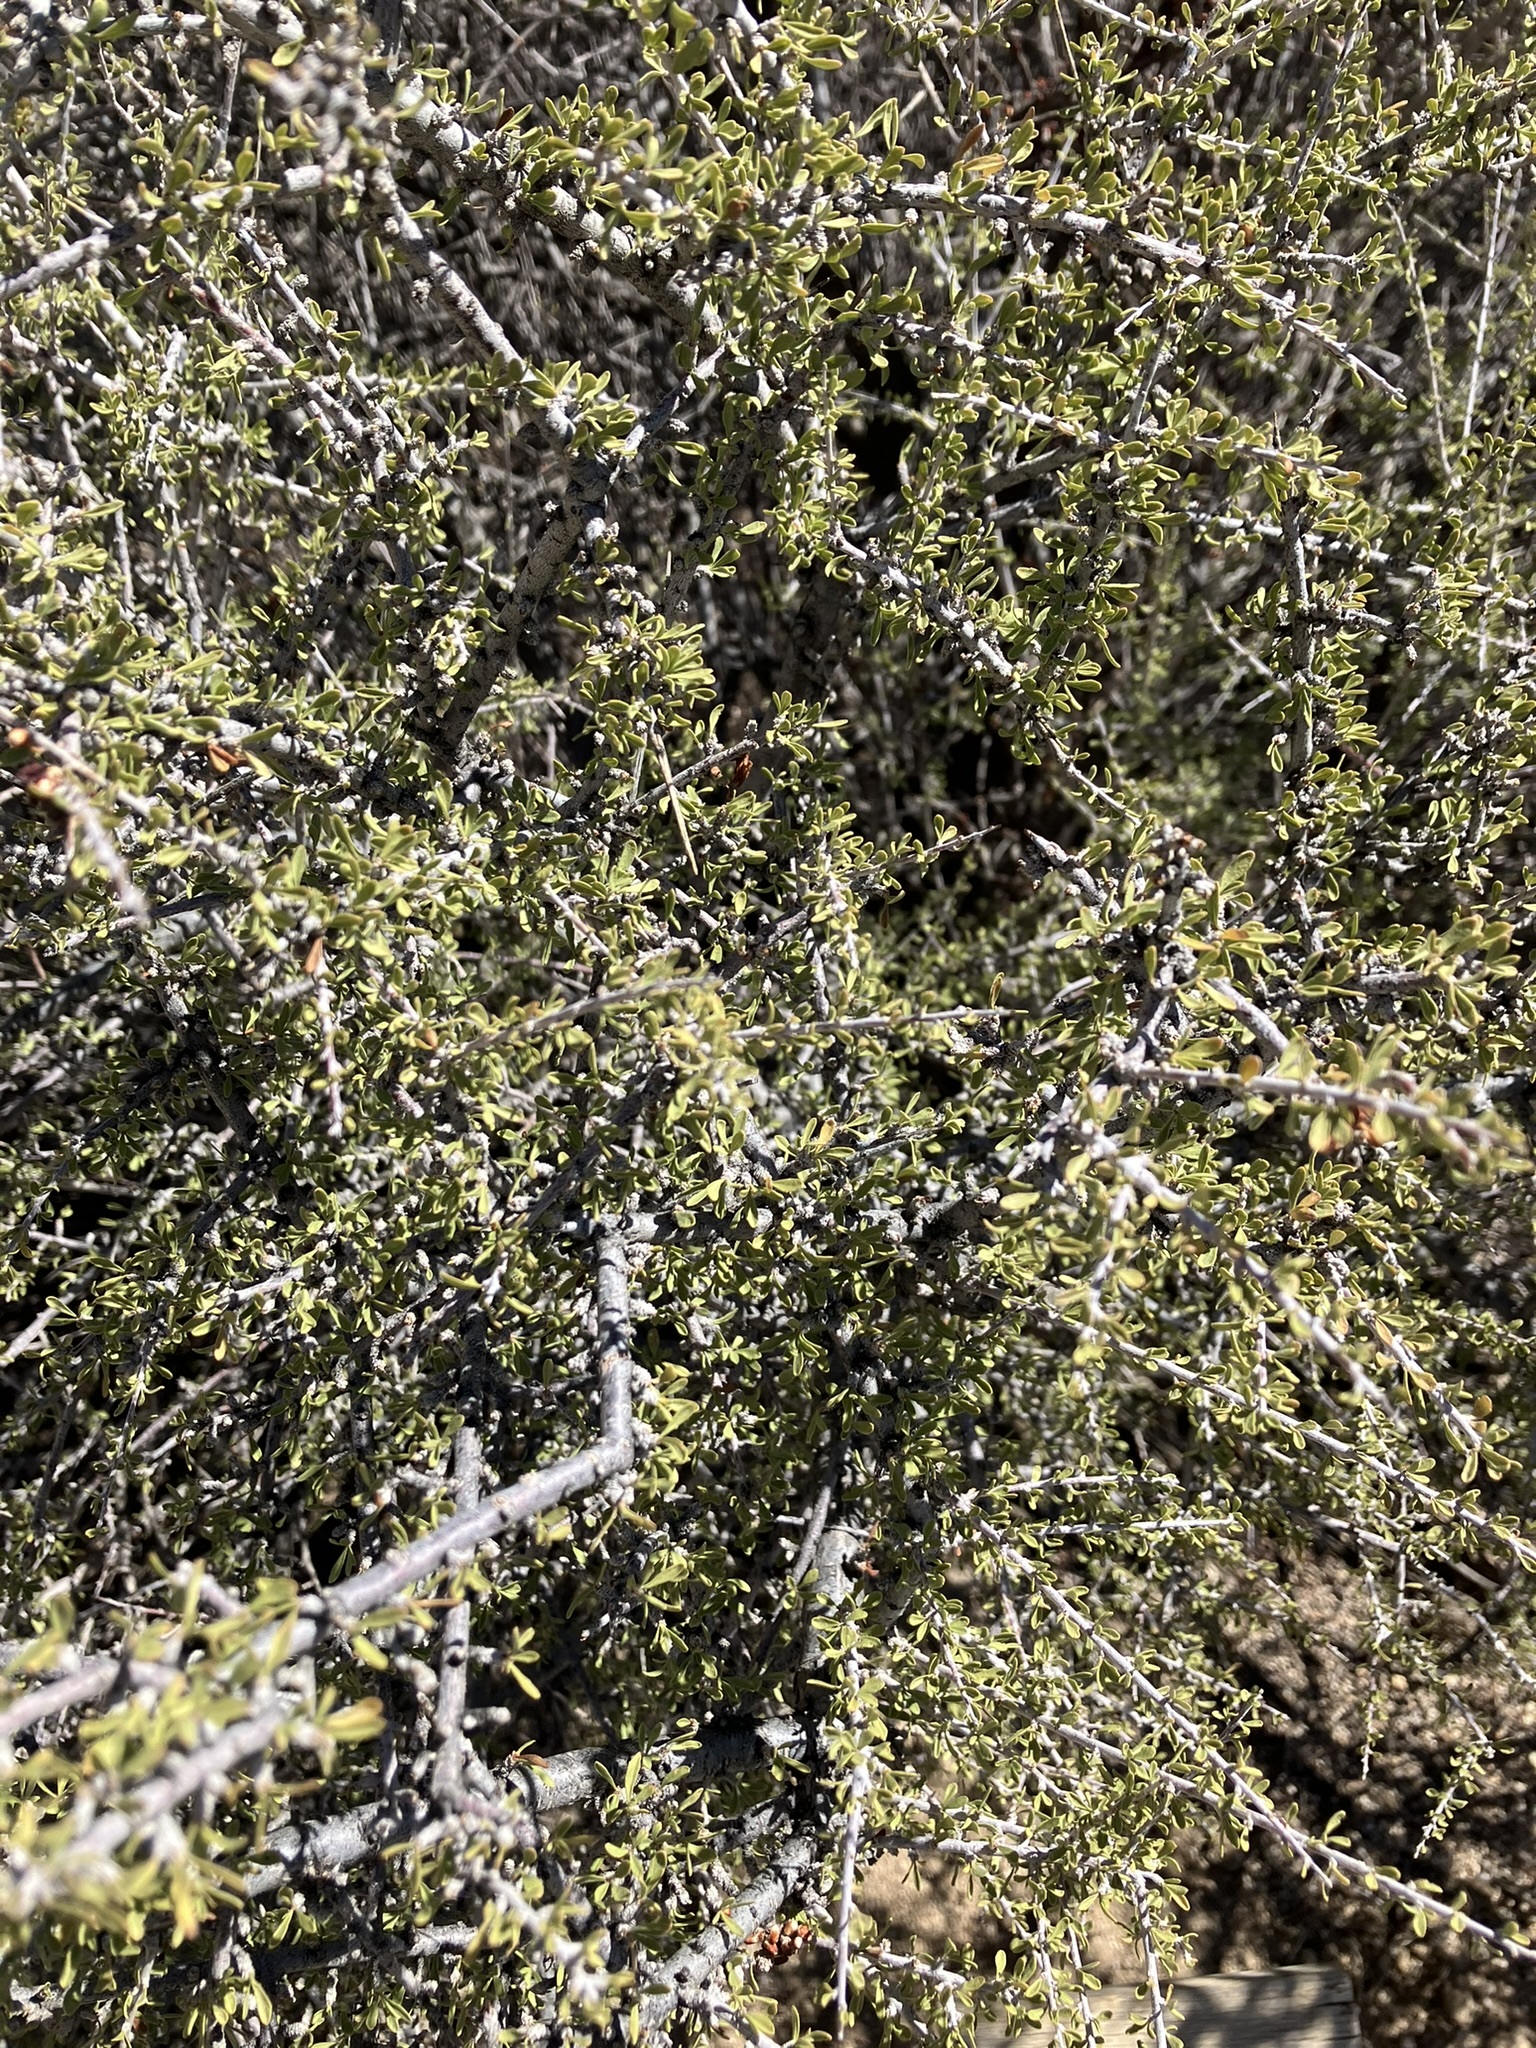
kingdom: Plantae
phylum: Tracheophyta
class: Magnoliopsida
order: Rosales
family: Rosaceae
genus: Prunus
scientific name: Prunus fasciculata
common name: Desert almond
